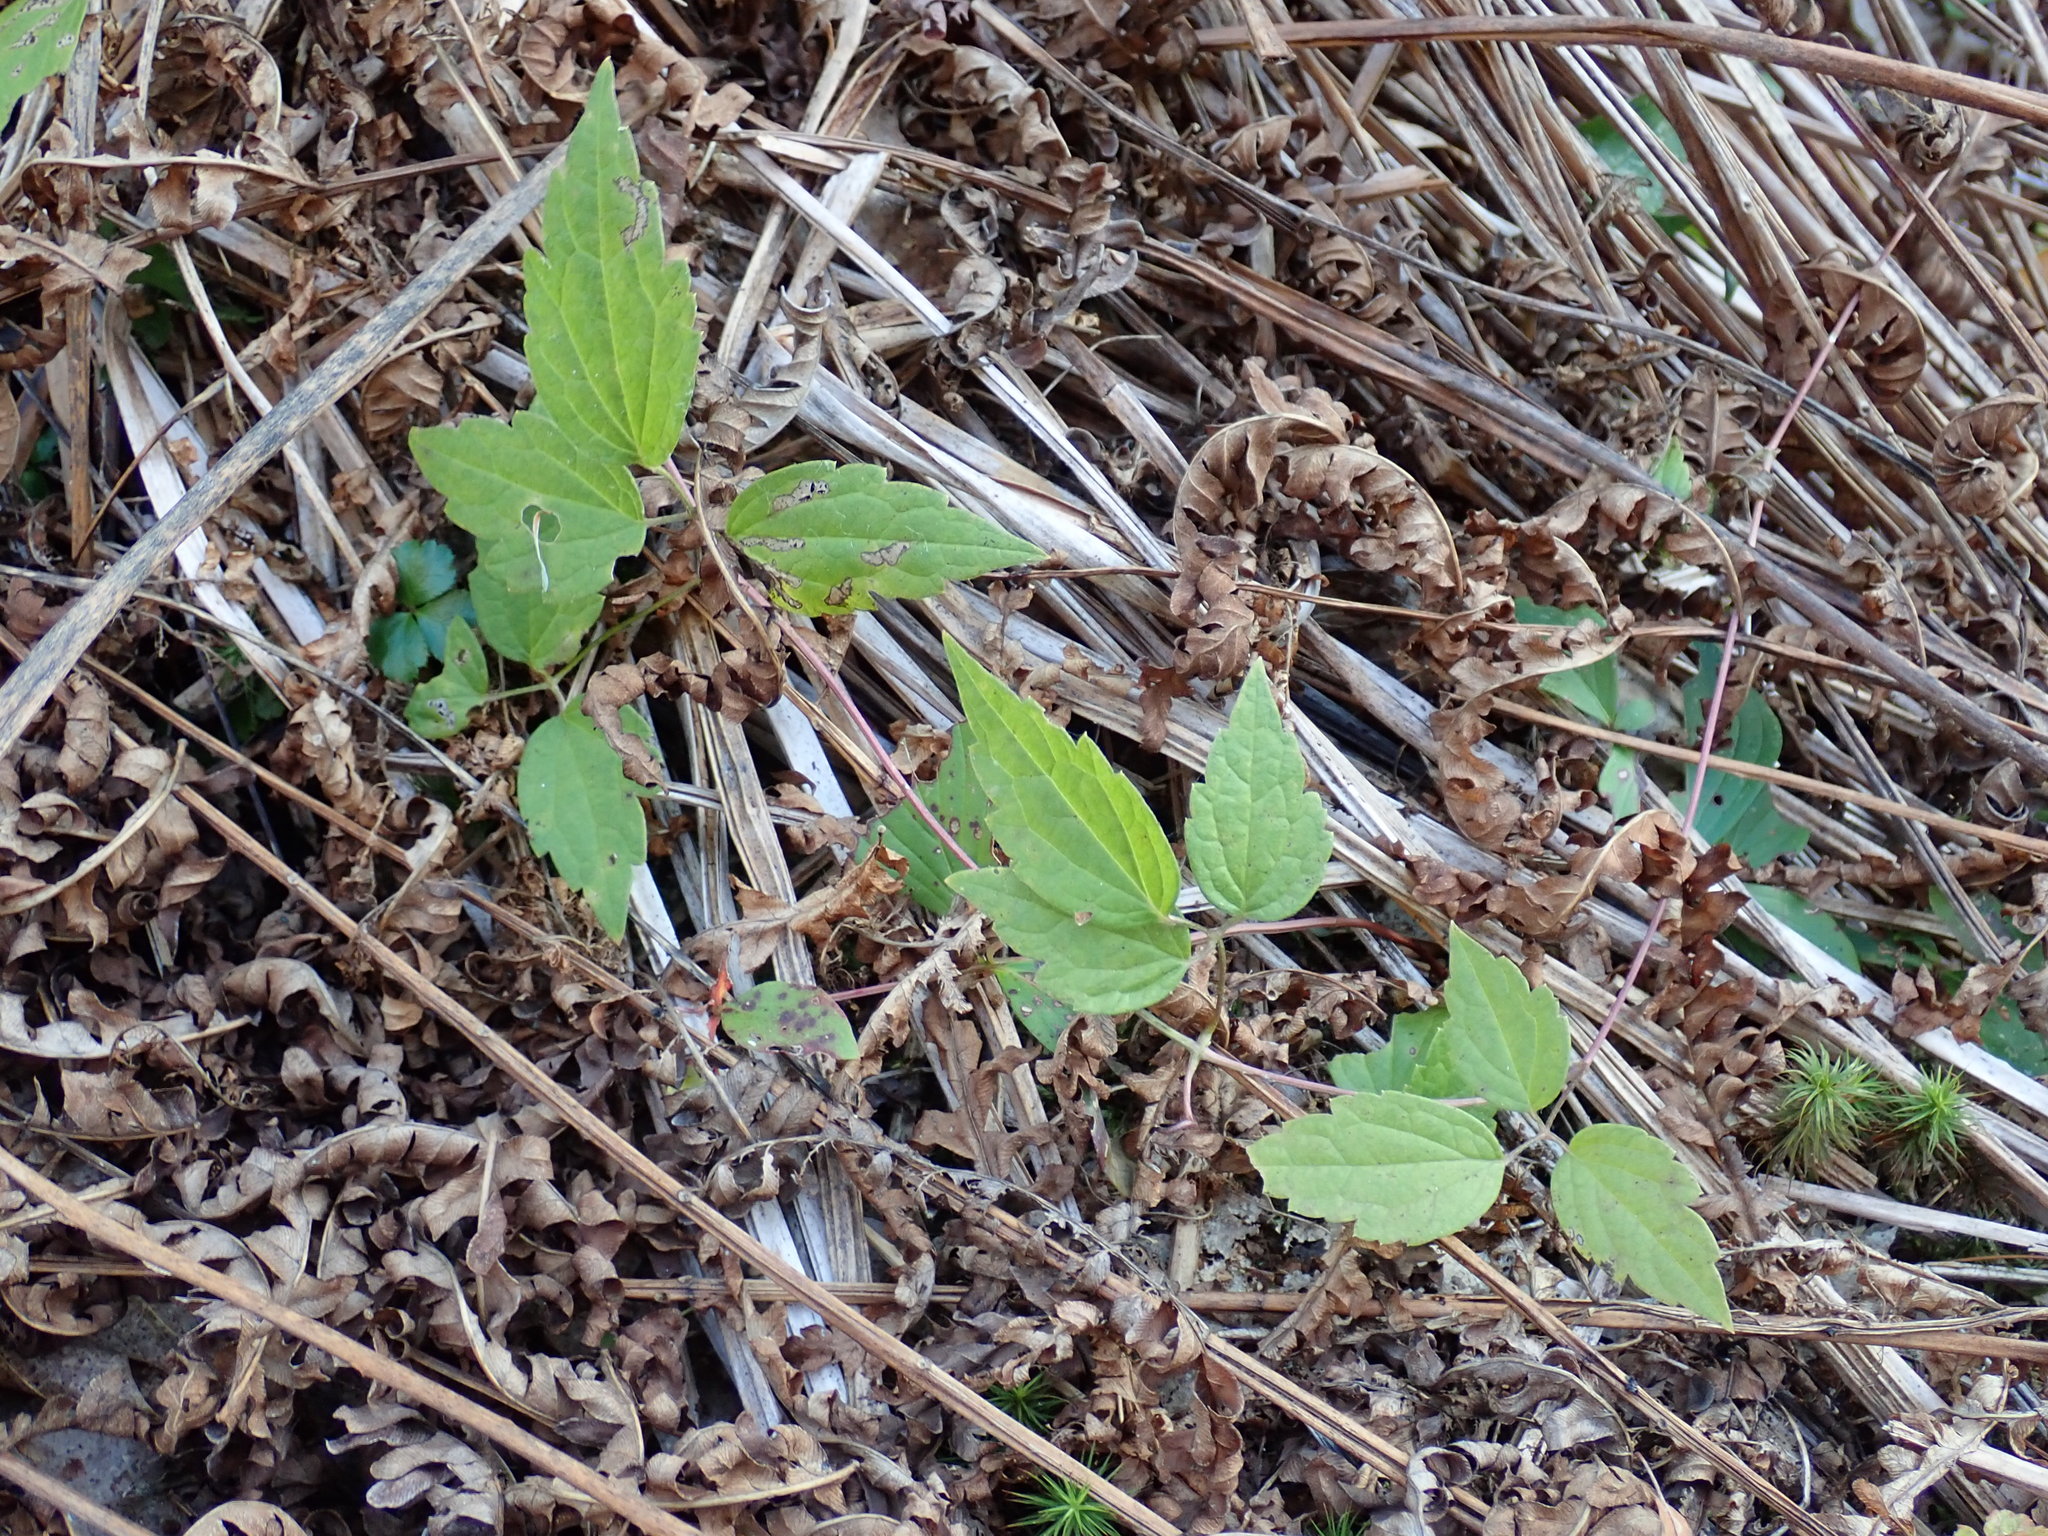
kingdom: Plantae
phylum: Tracheophyta
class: Magnoliopsida
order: Ranunculales
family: Ranunculaceae
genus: Clematis
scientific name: Clematis virginiana
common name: Virgin's-bower
